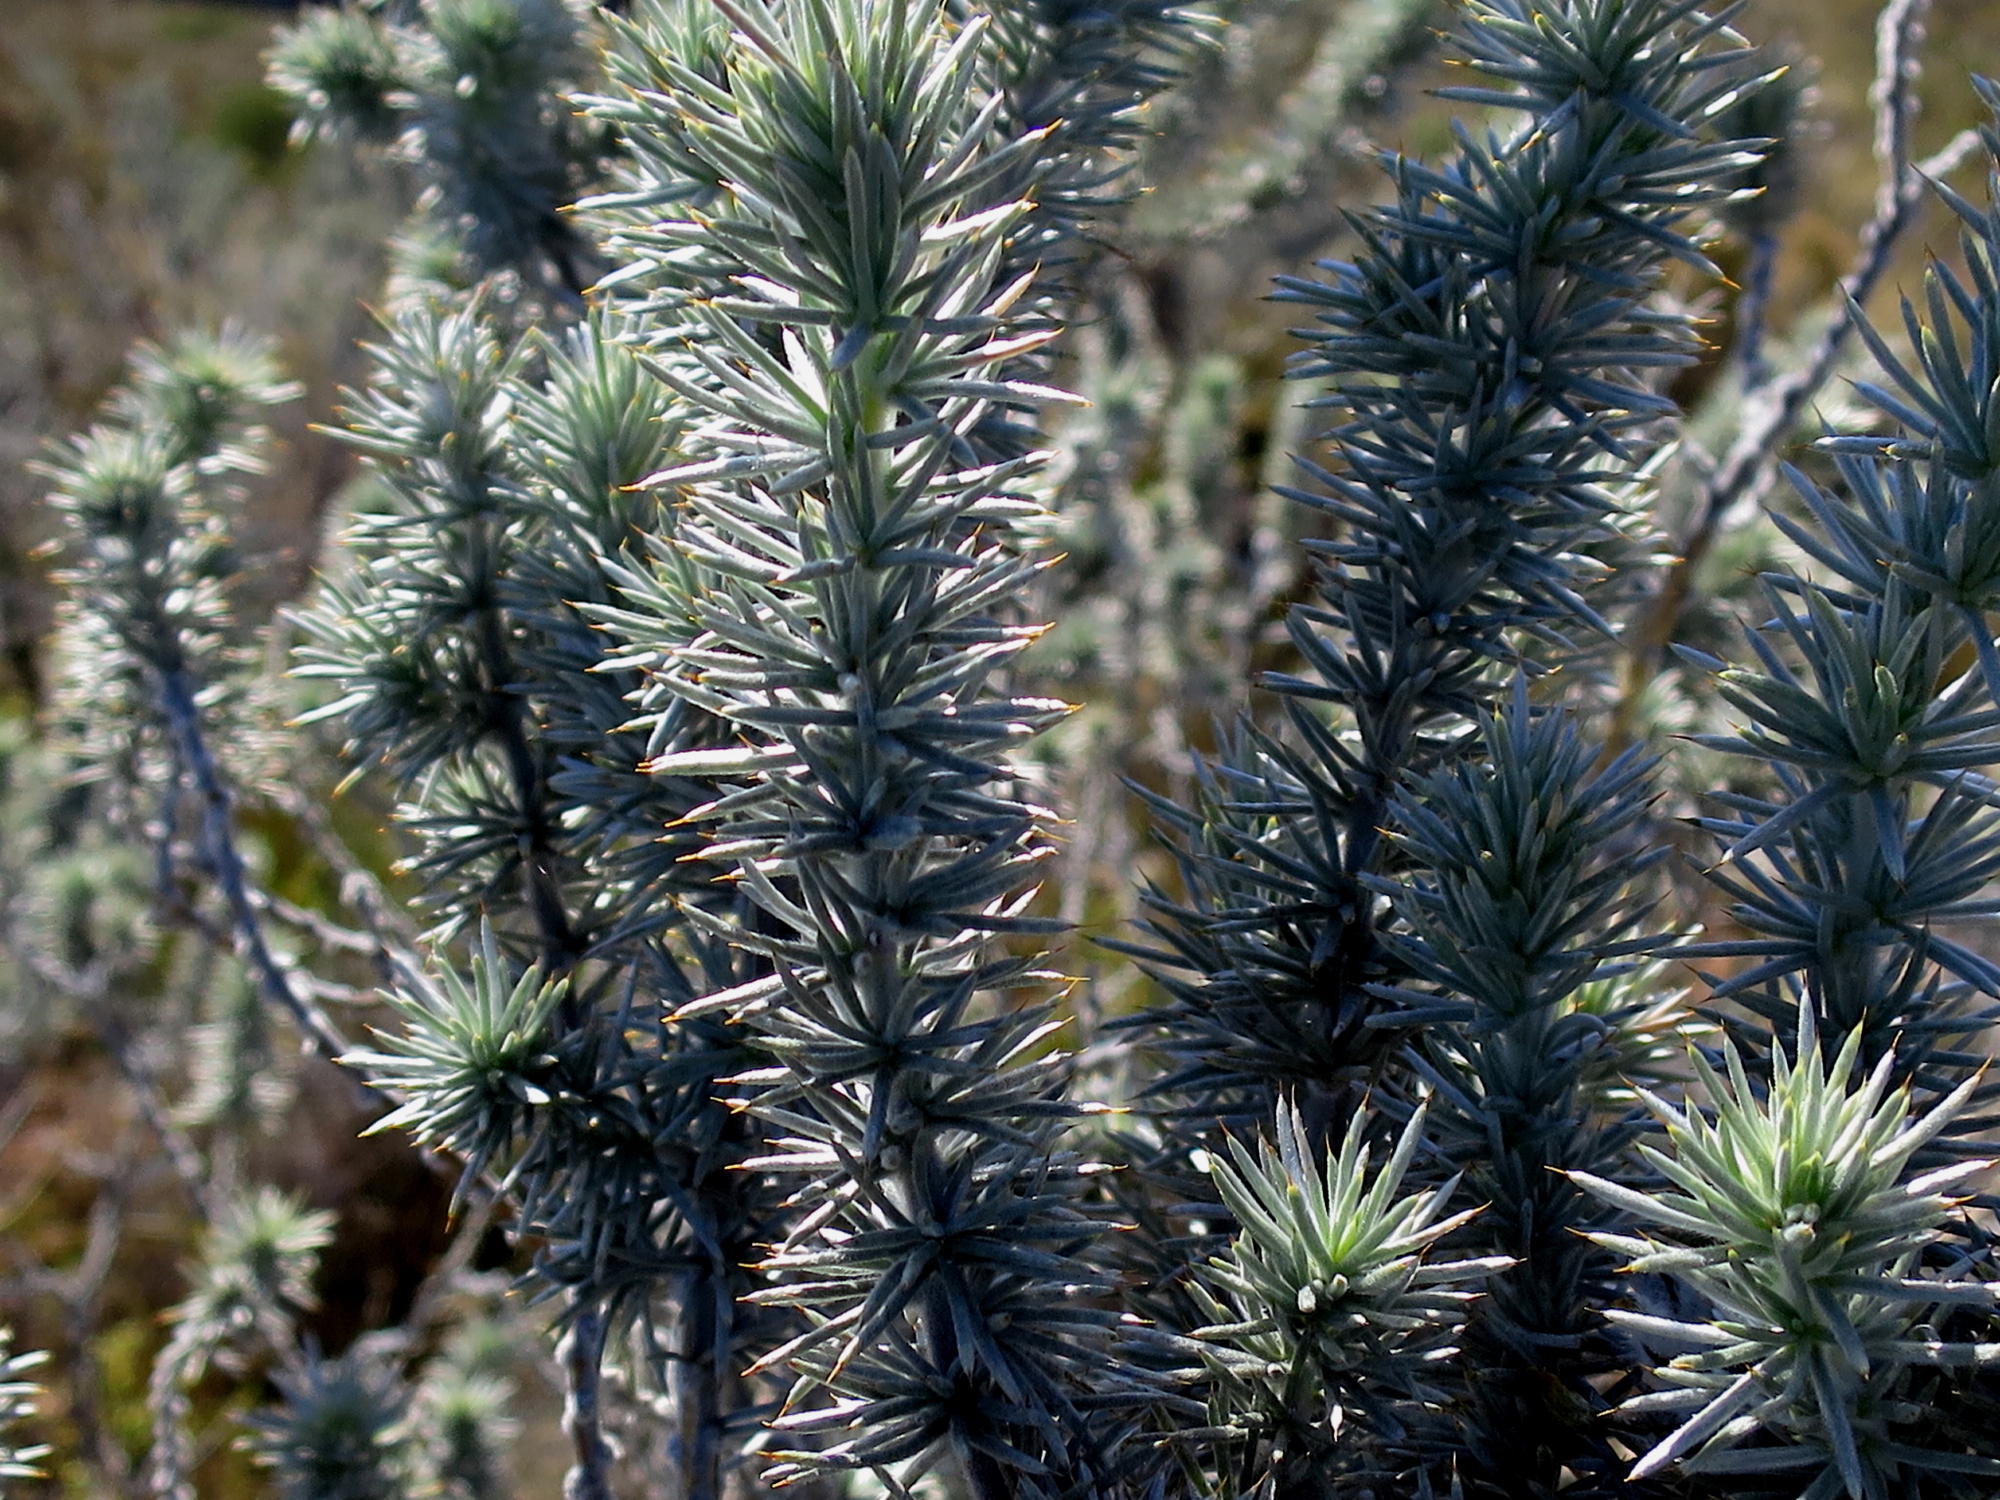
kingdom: Plantae
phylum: Tracheophyta
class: Magnoliopsida
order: Fabales
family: Fabaceae
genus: Aspalathus
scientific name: Aspalathus hystrix
